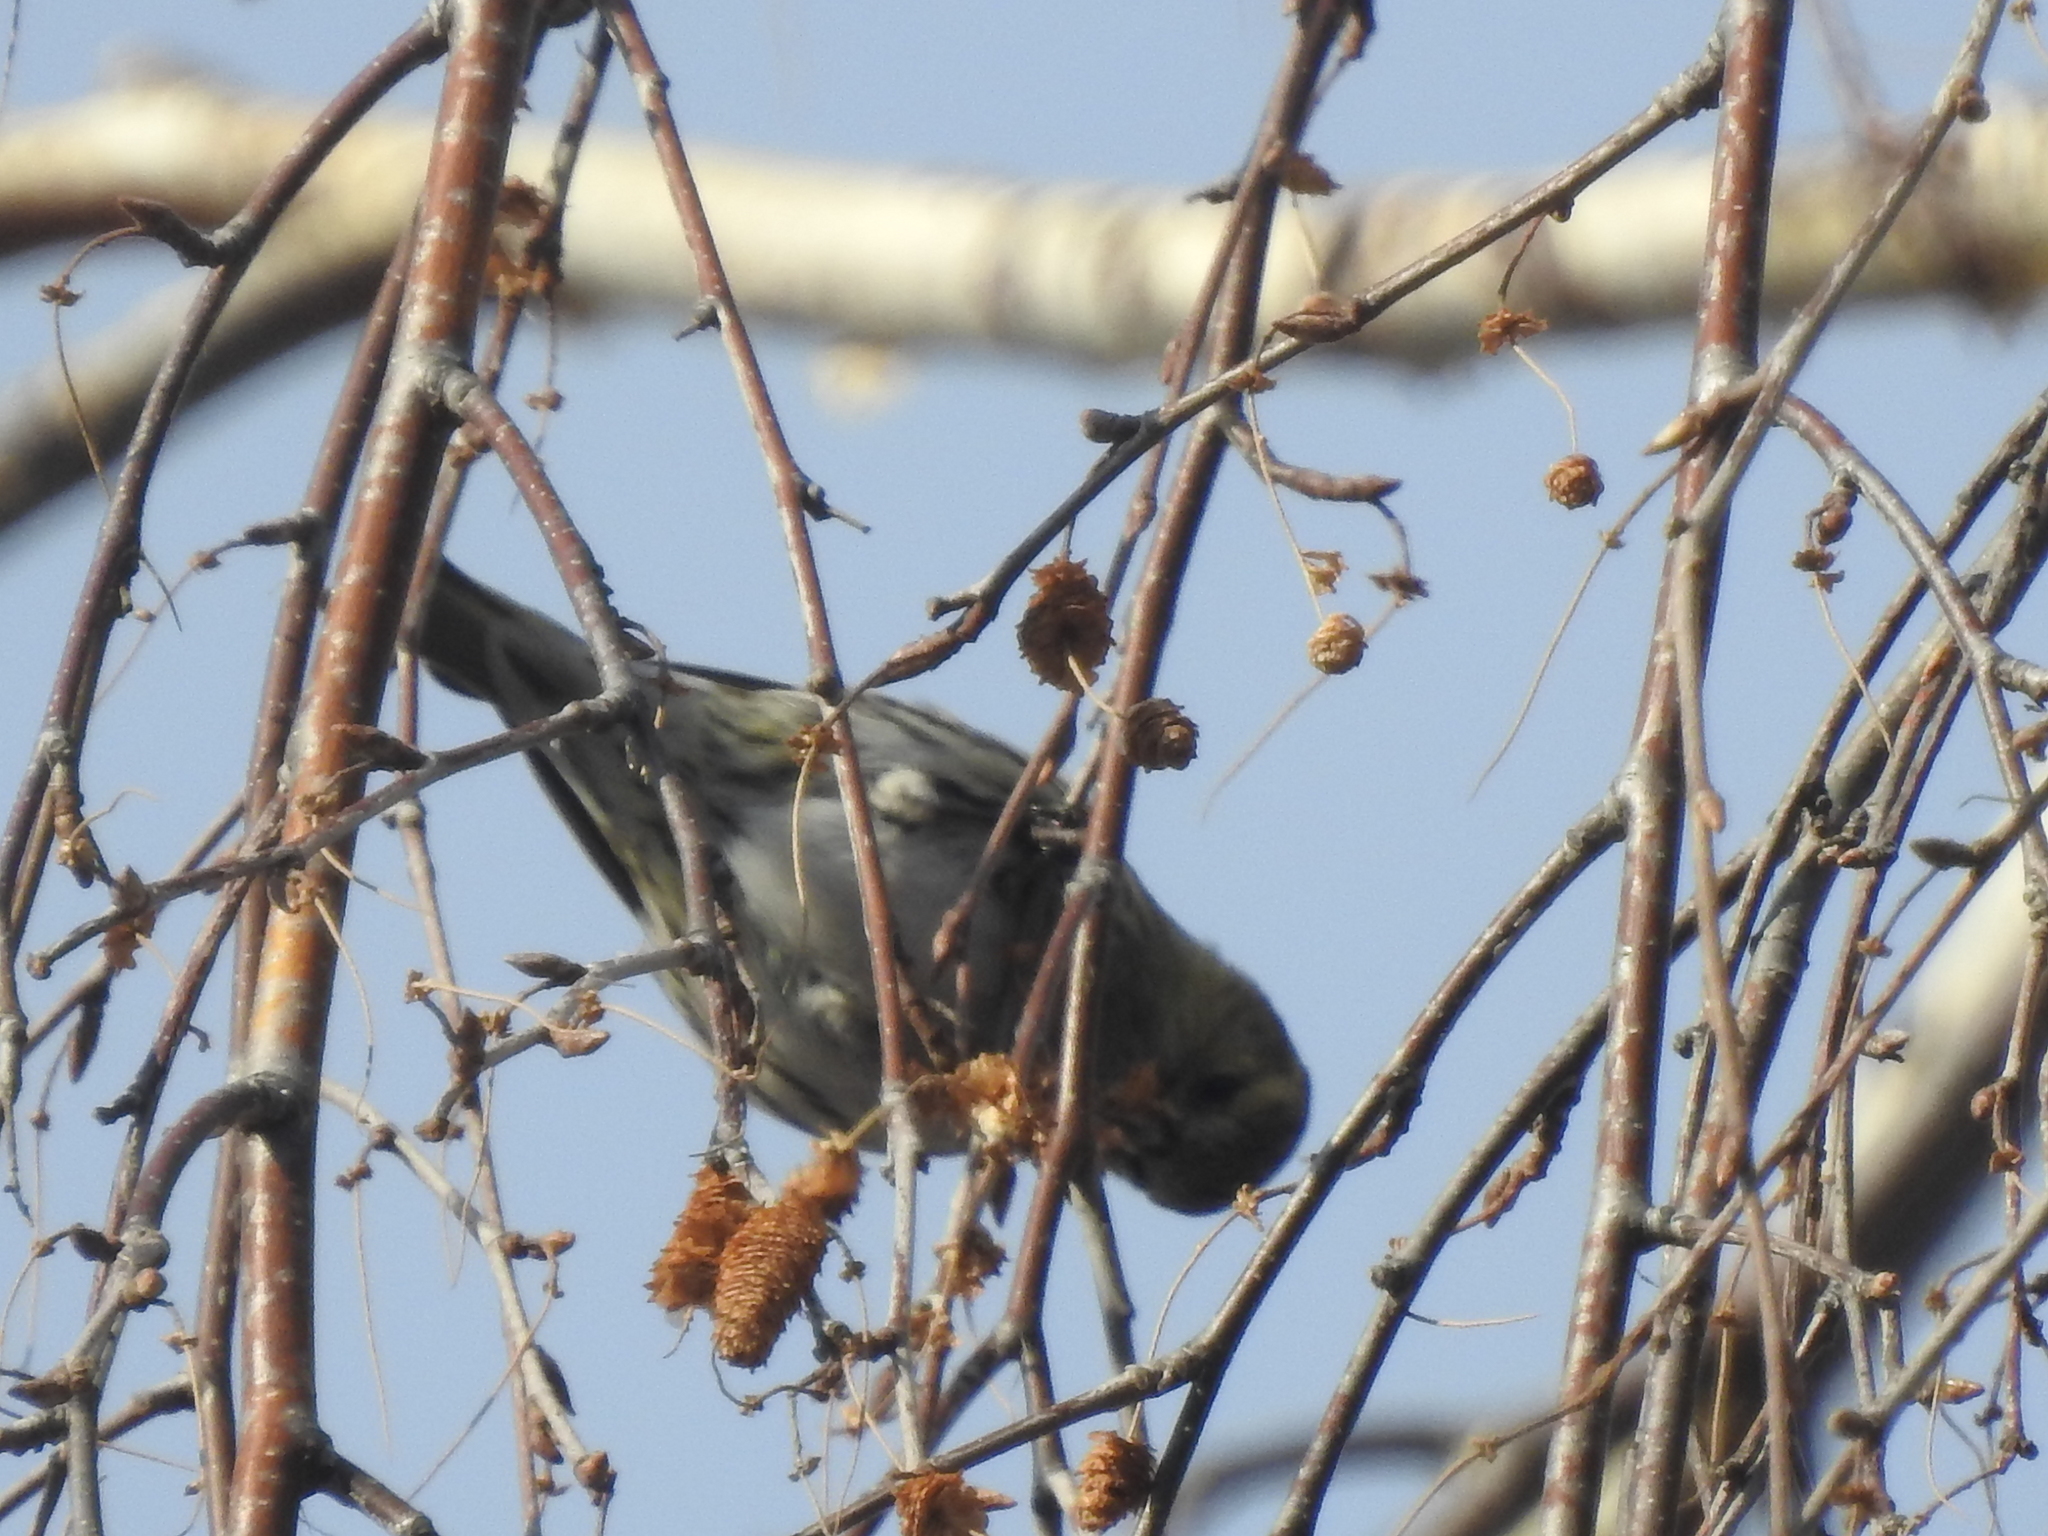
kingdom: Animalia
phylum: Chordata
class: Aves
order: Passeriformes
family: Fringillidae
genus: Acanthis
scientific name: Acanthis flammea
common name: Common redpoll
